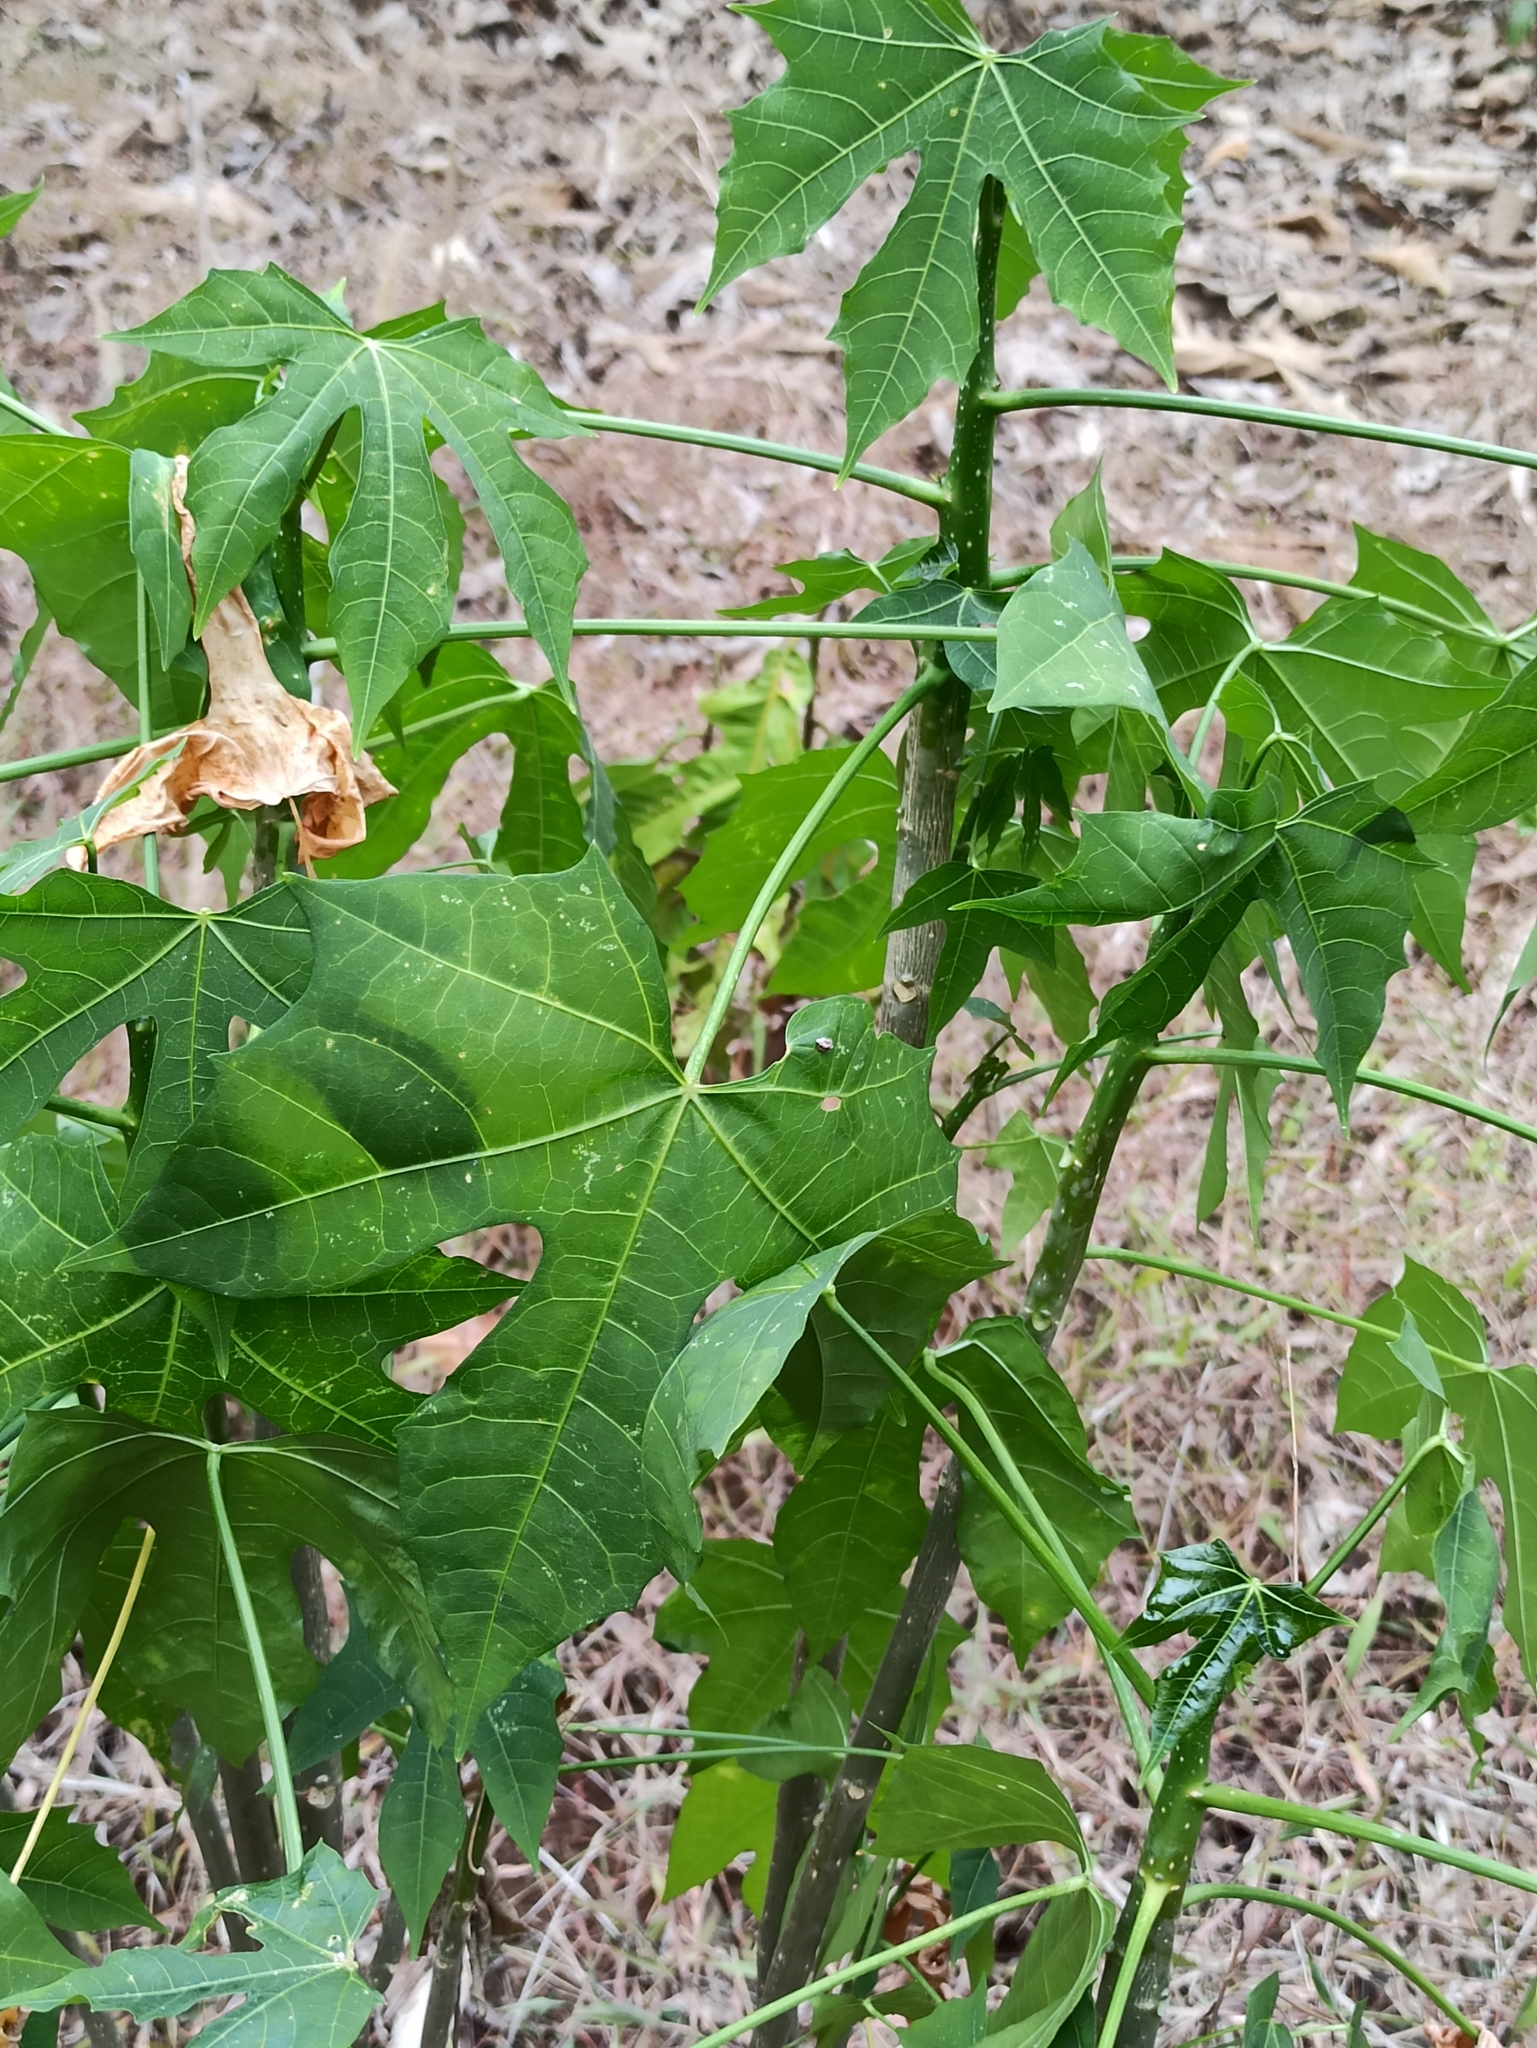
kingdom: Plantae
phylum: Tracheophyta
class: Magnoliopsida
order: Malpighiales
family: Euphorbiaceae
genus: Cnidoscolus
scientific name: Cnidoscolus aconitifolius
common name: Cabbage-star
